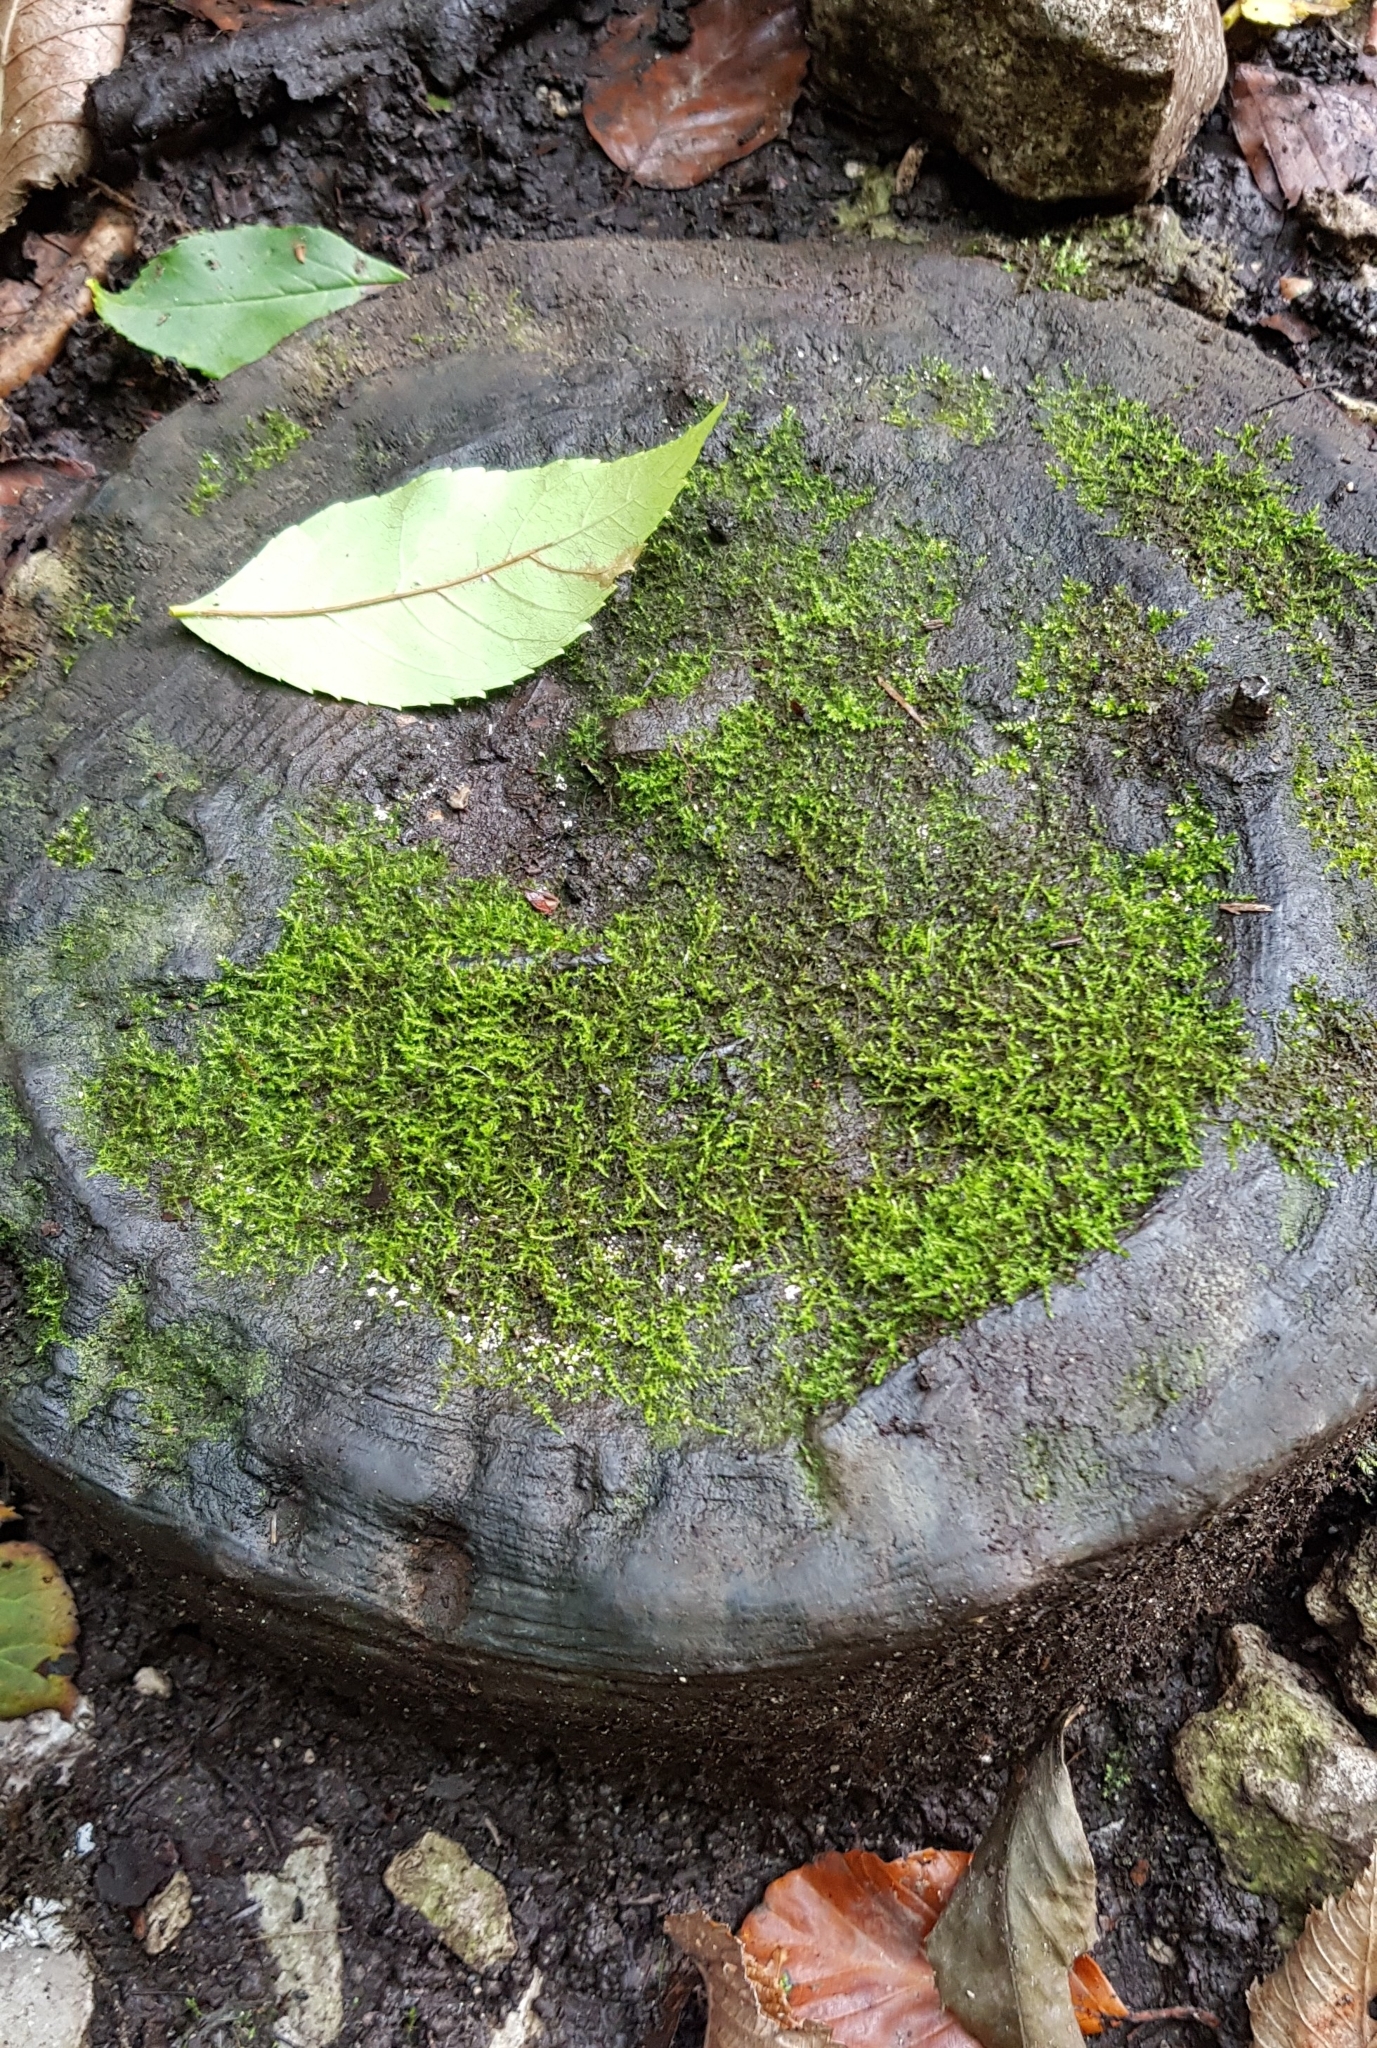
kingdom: Plantae
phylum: Bryophyta
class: Bryopsida
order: Hypnales
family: Amblystegiaceae
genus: Amblystegium
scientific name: Amblystegium serpens
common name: Jurkatzka's feather moss
